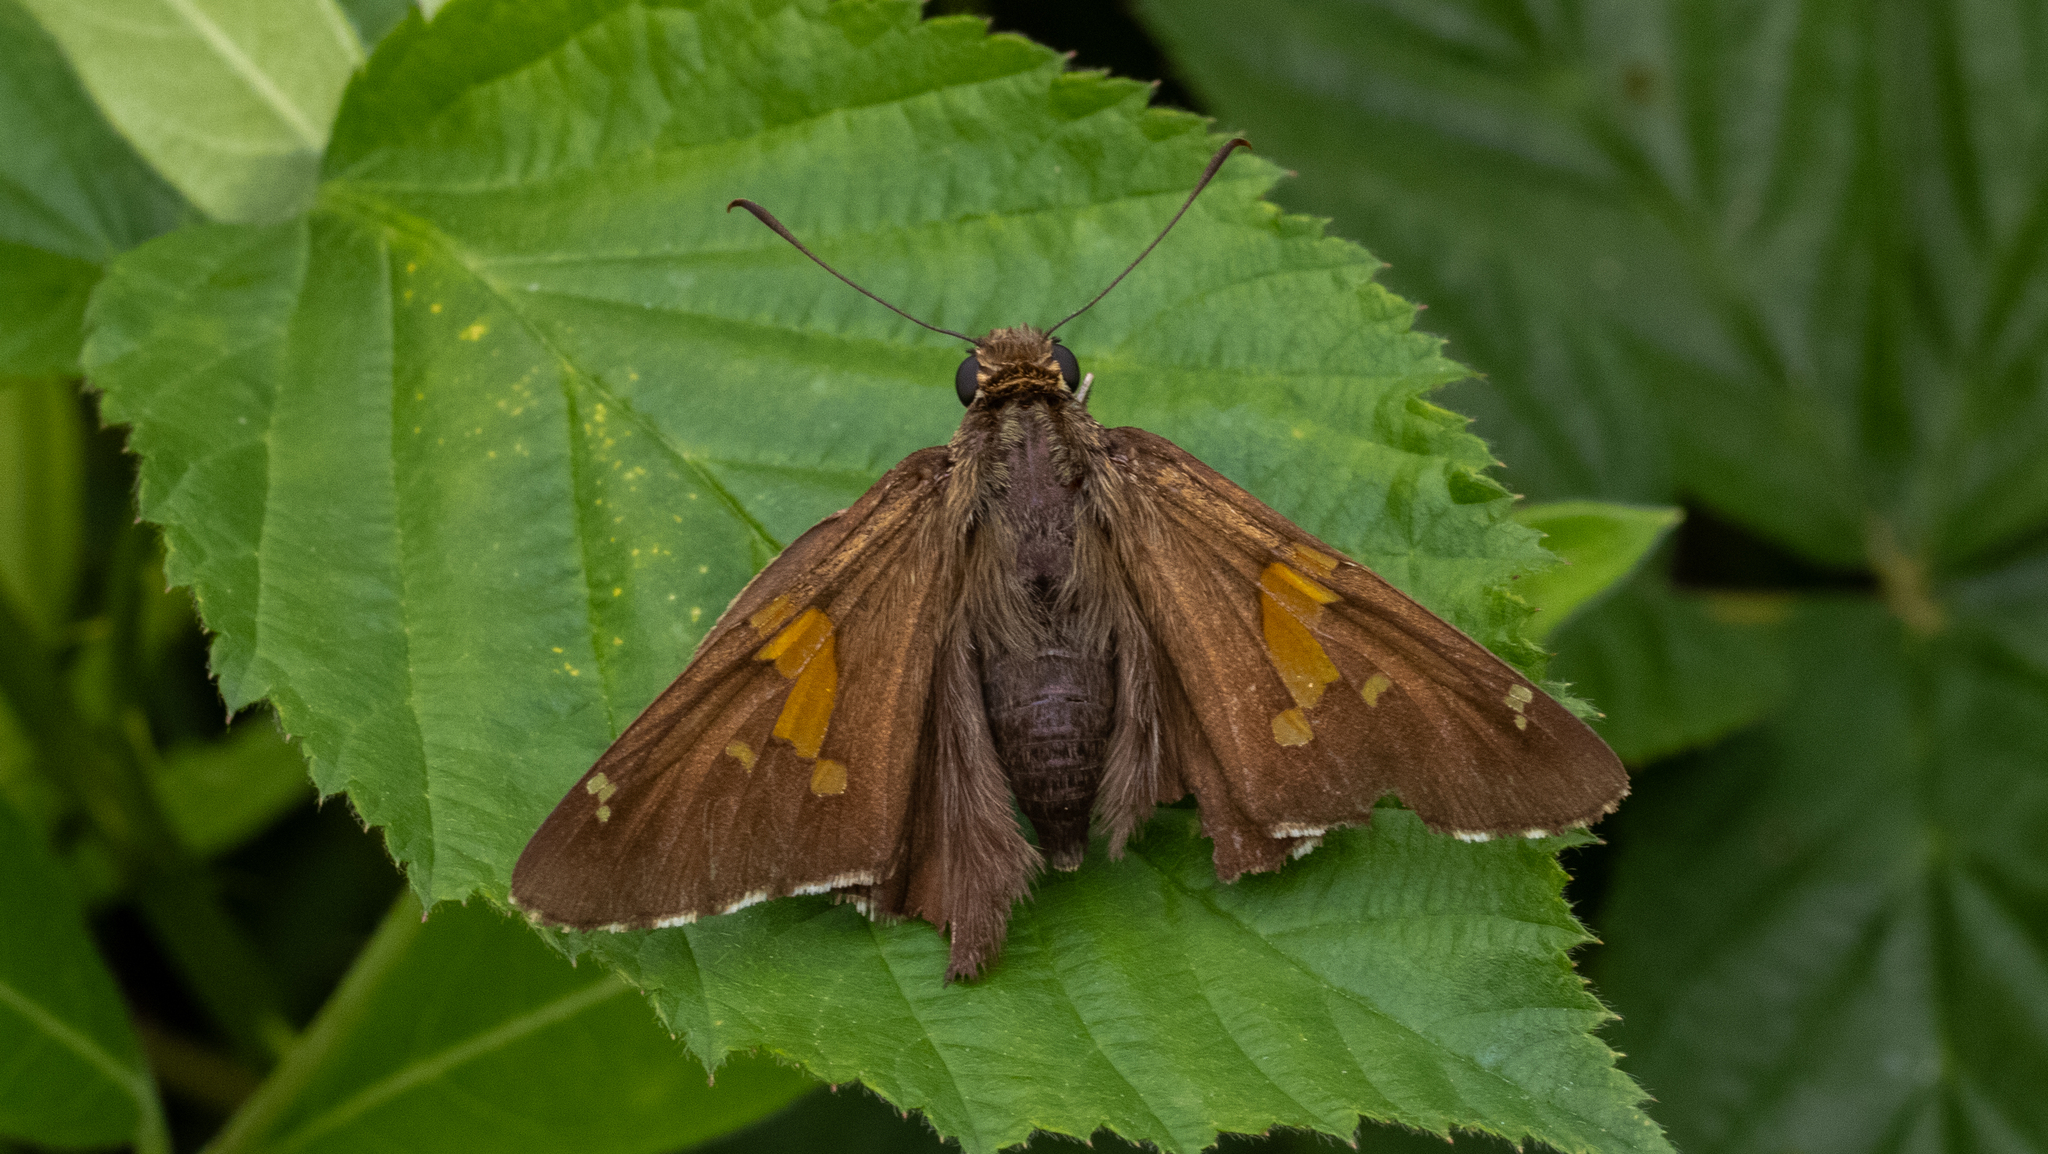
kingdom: Animalia
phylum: Arthropoda
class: Insecta
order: Lepidoptera
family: Hesperiidae
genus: Epargyreus
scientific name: Epargyreus clarus
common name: Silver-spotted skipper
